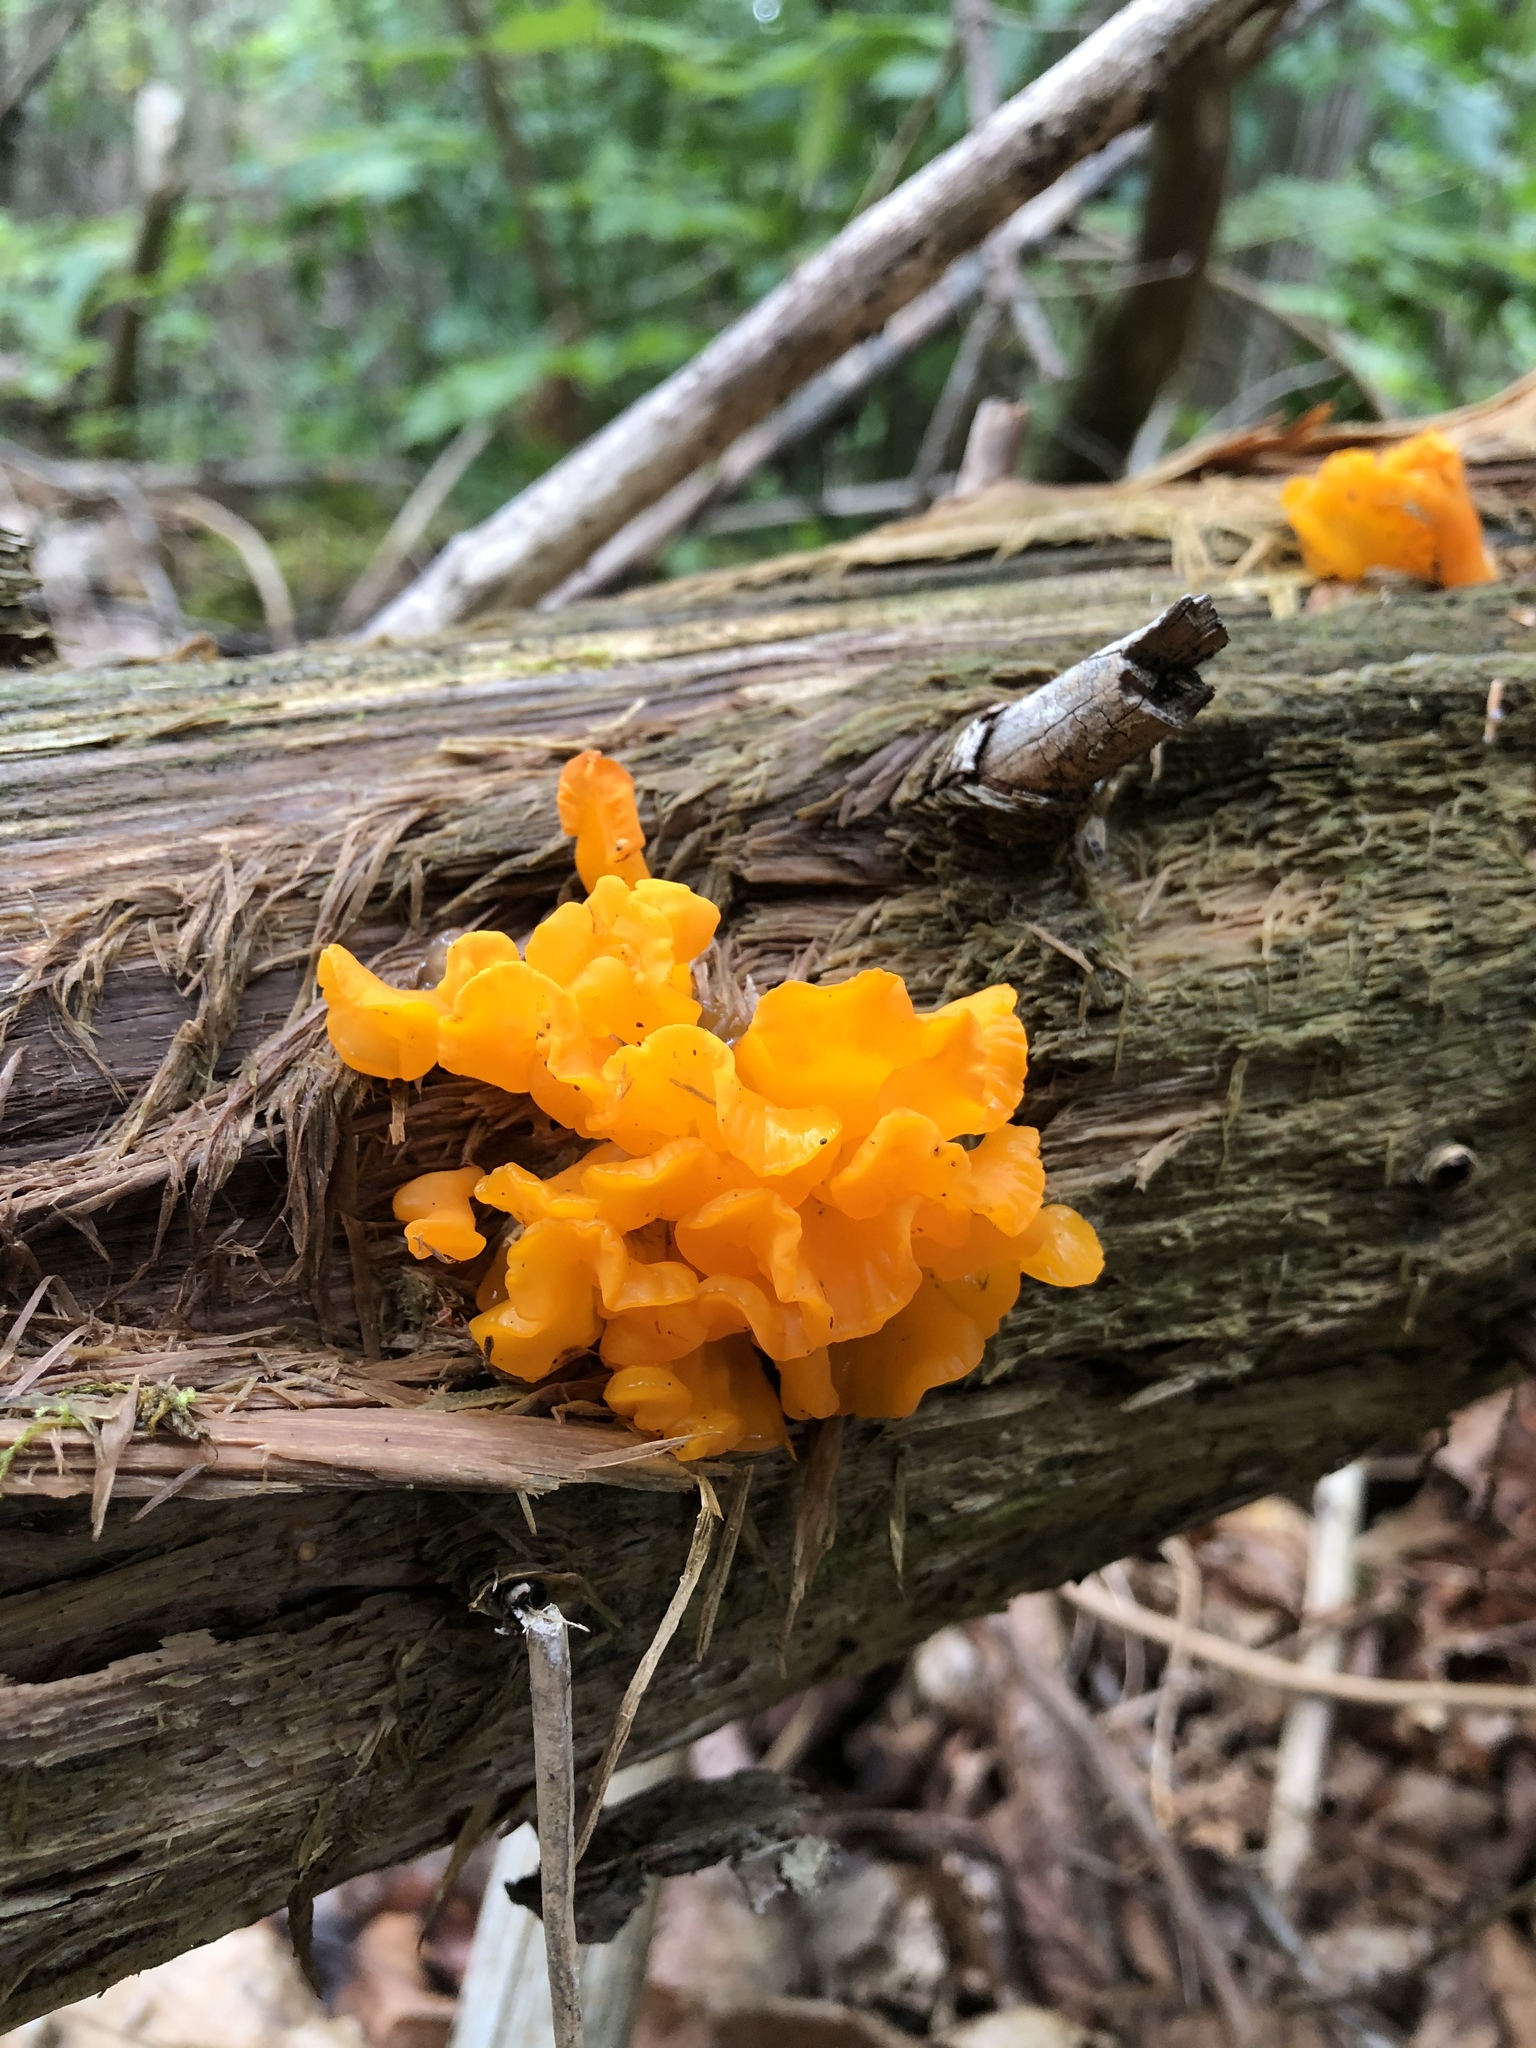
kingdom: Fungi
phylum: Basidiomycota
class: Dacrymycetes
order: Dacrymycetales
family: Dacrymycetaceae
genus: Dacrymyces
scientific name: Dacrymyces chrysospermus
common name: Orange jelly spot
